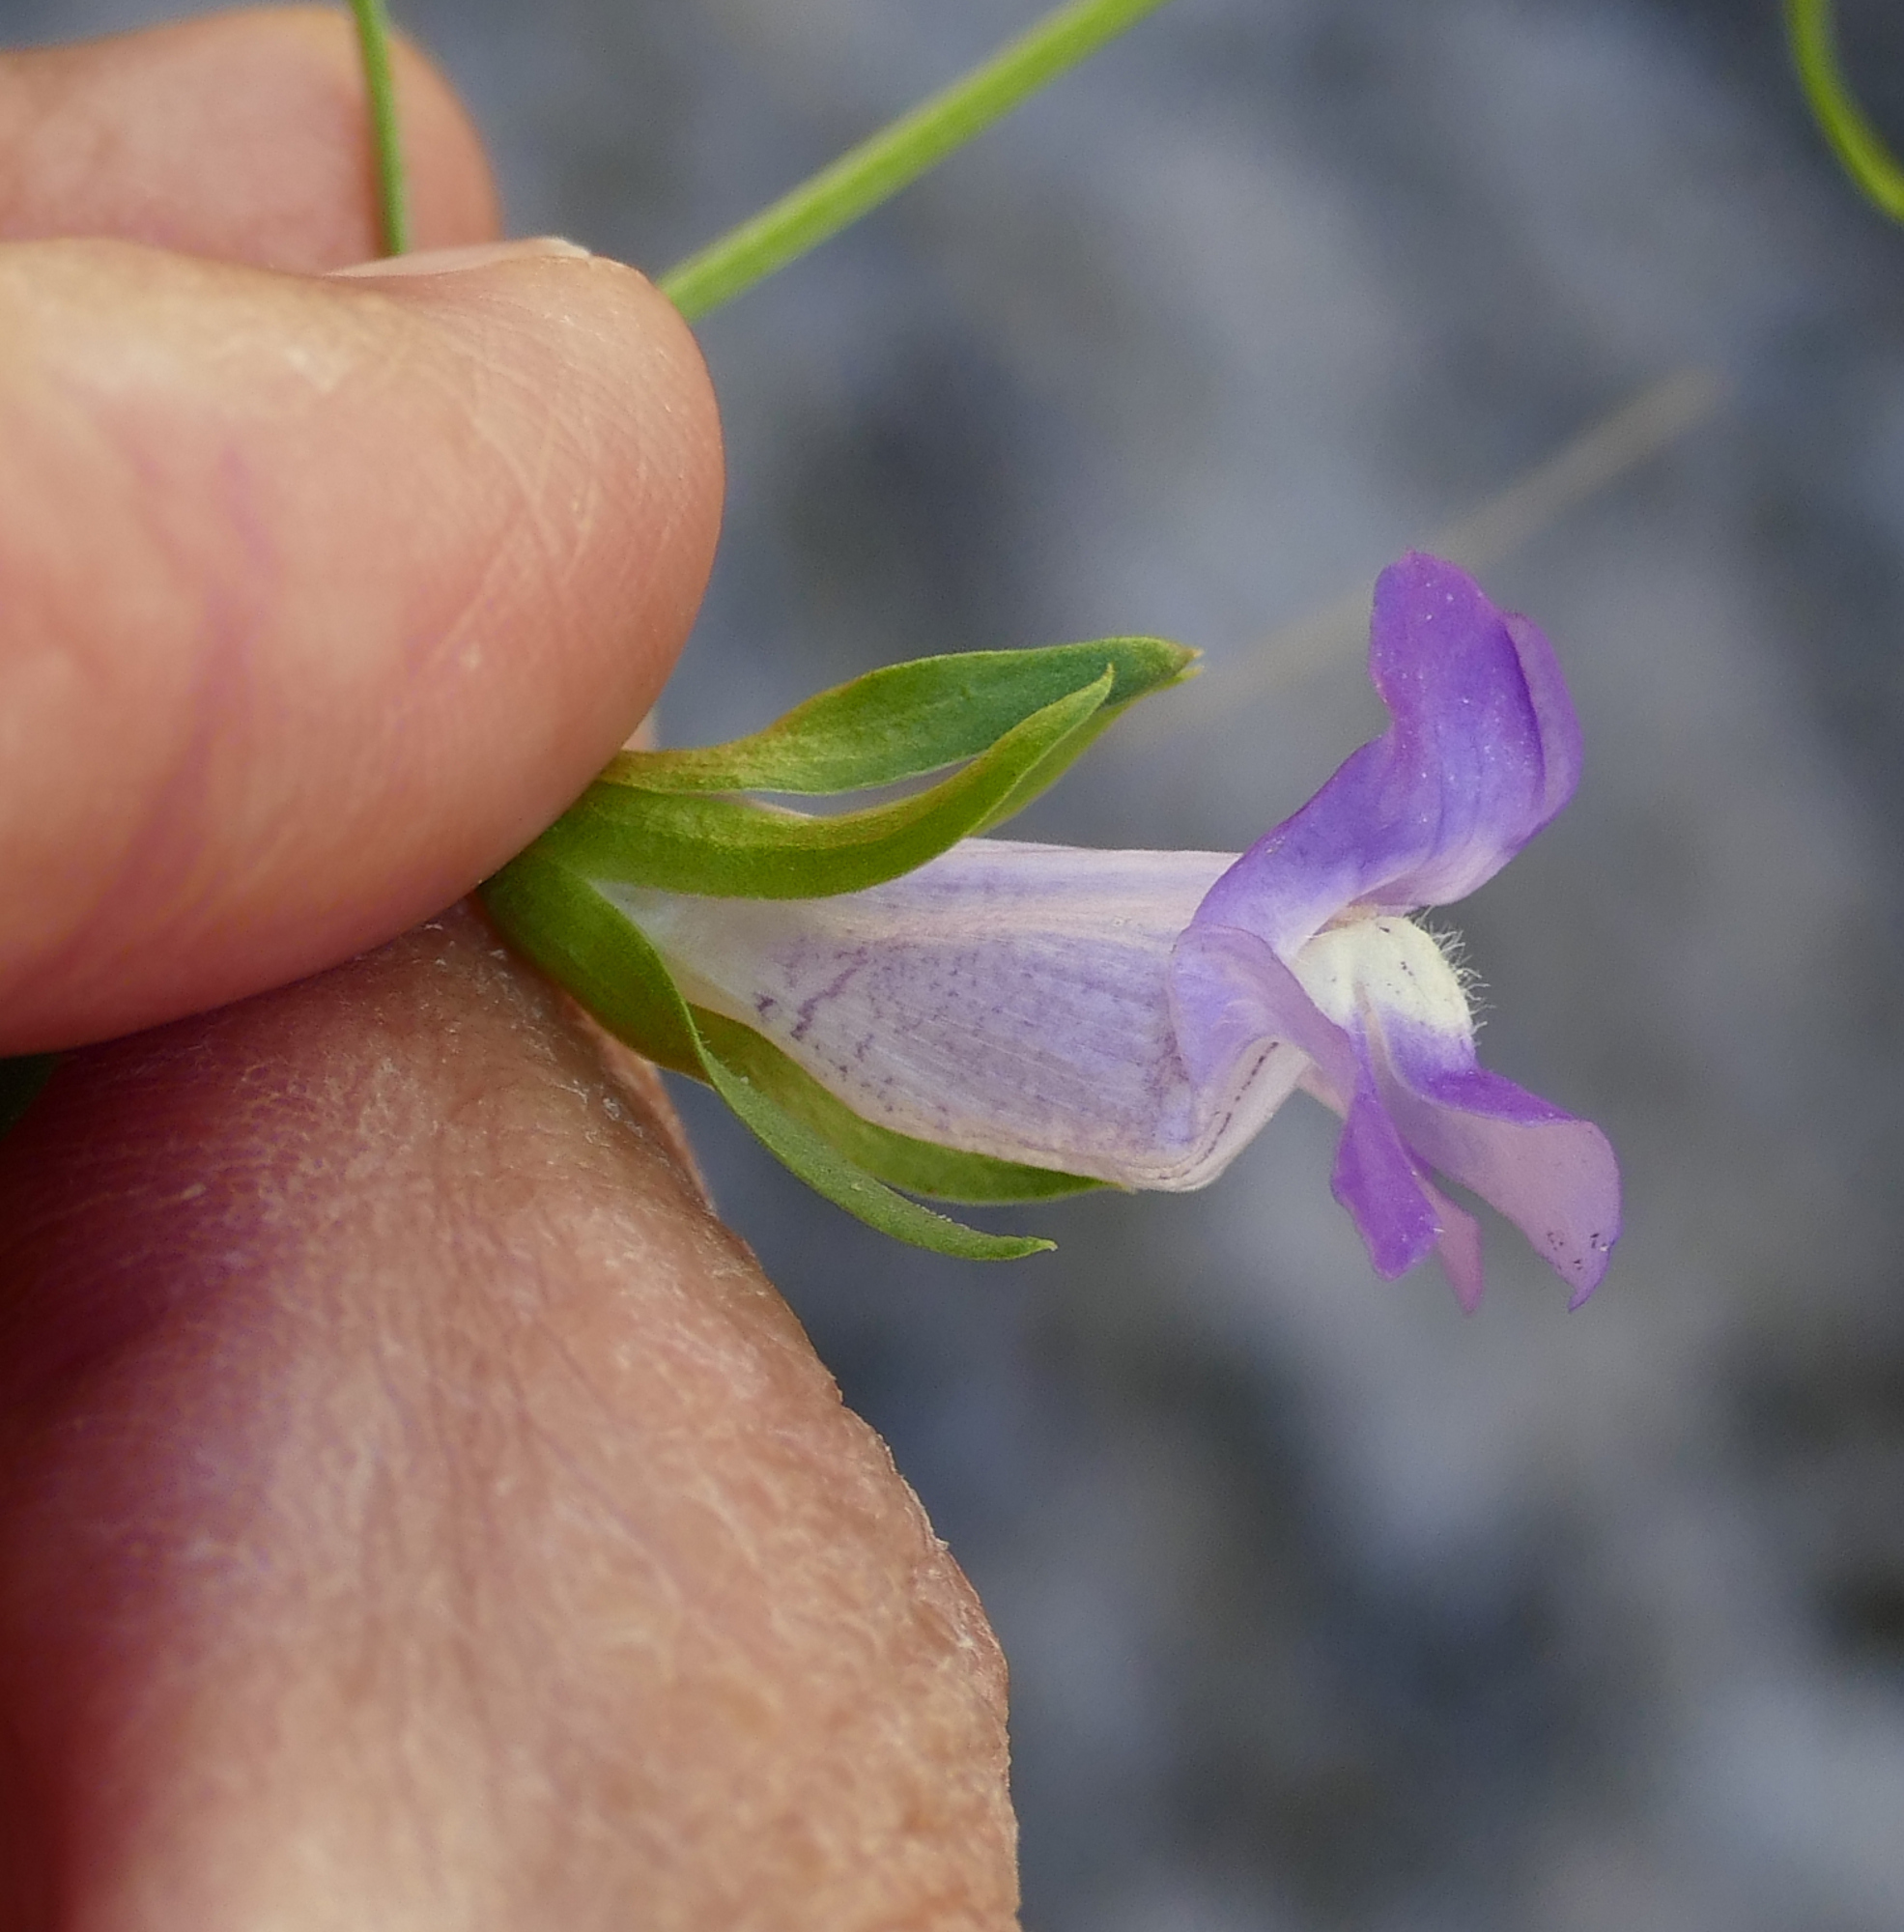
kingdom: Plantae
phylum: Tracheophyta
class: Magnoliopsida
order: Lamiales
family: Plantaginaceae
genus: Maurandella
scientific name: Maurandella antirrhiniflora
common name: Violet twining-snapdragon
